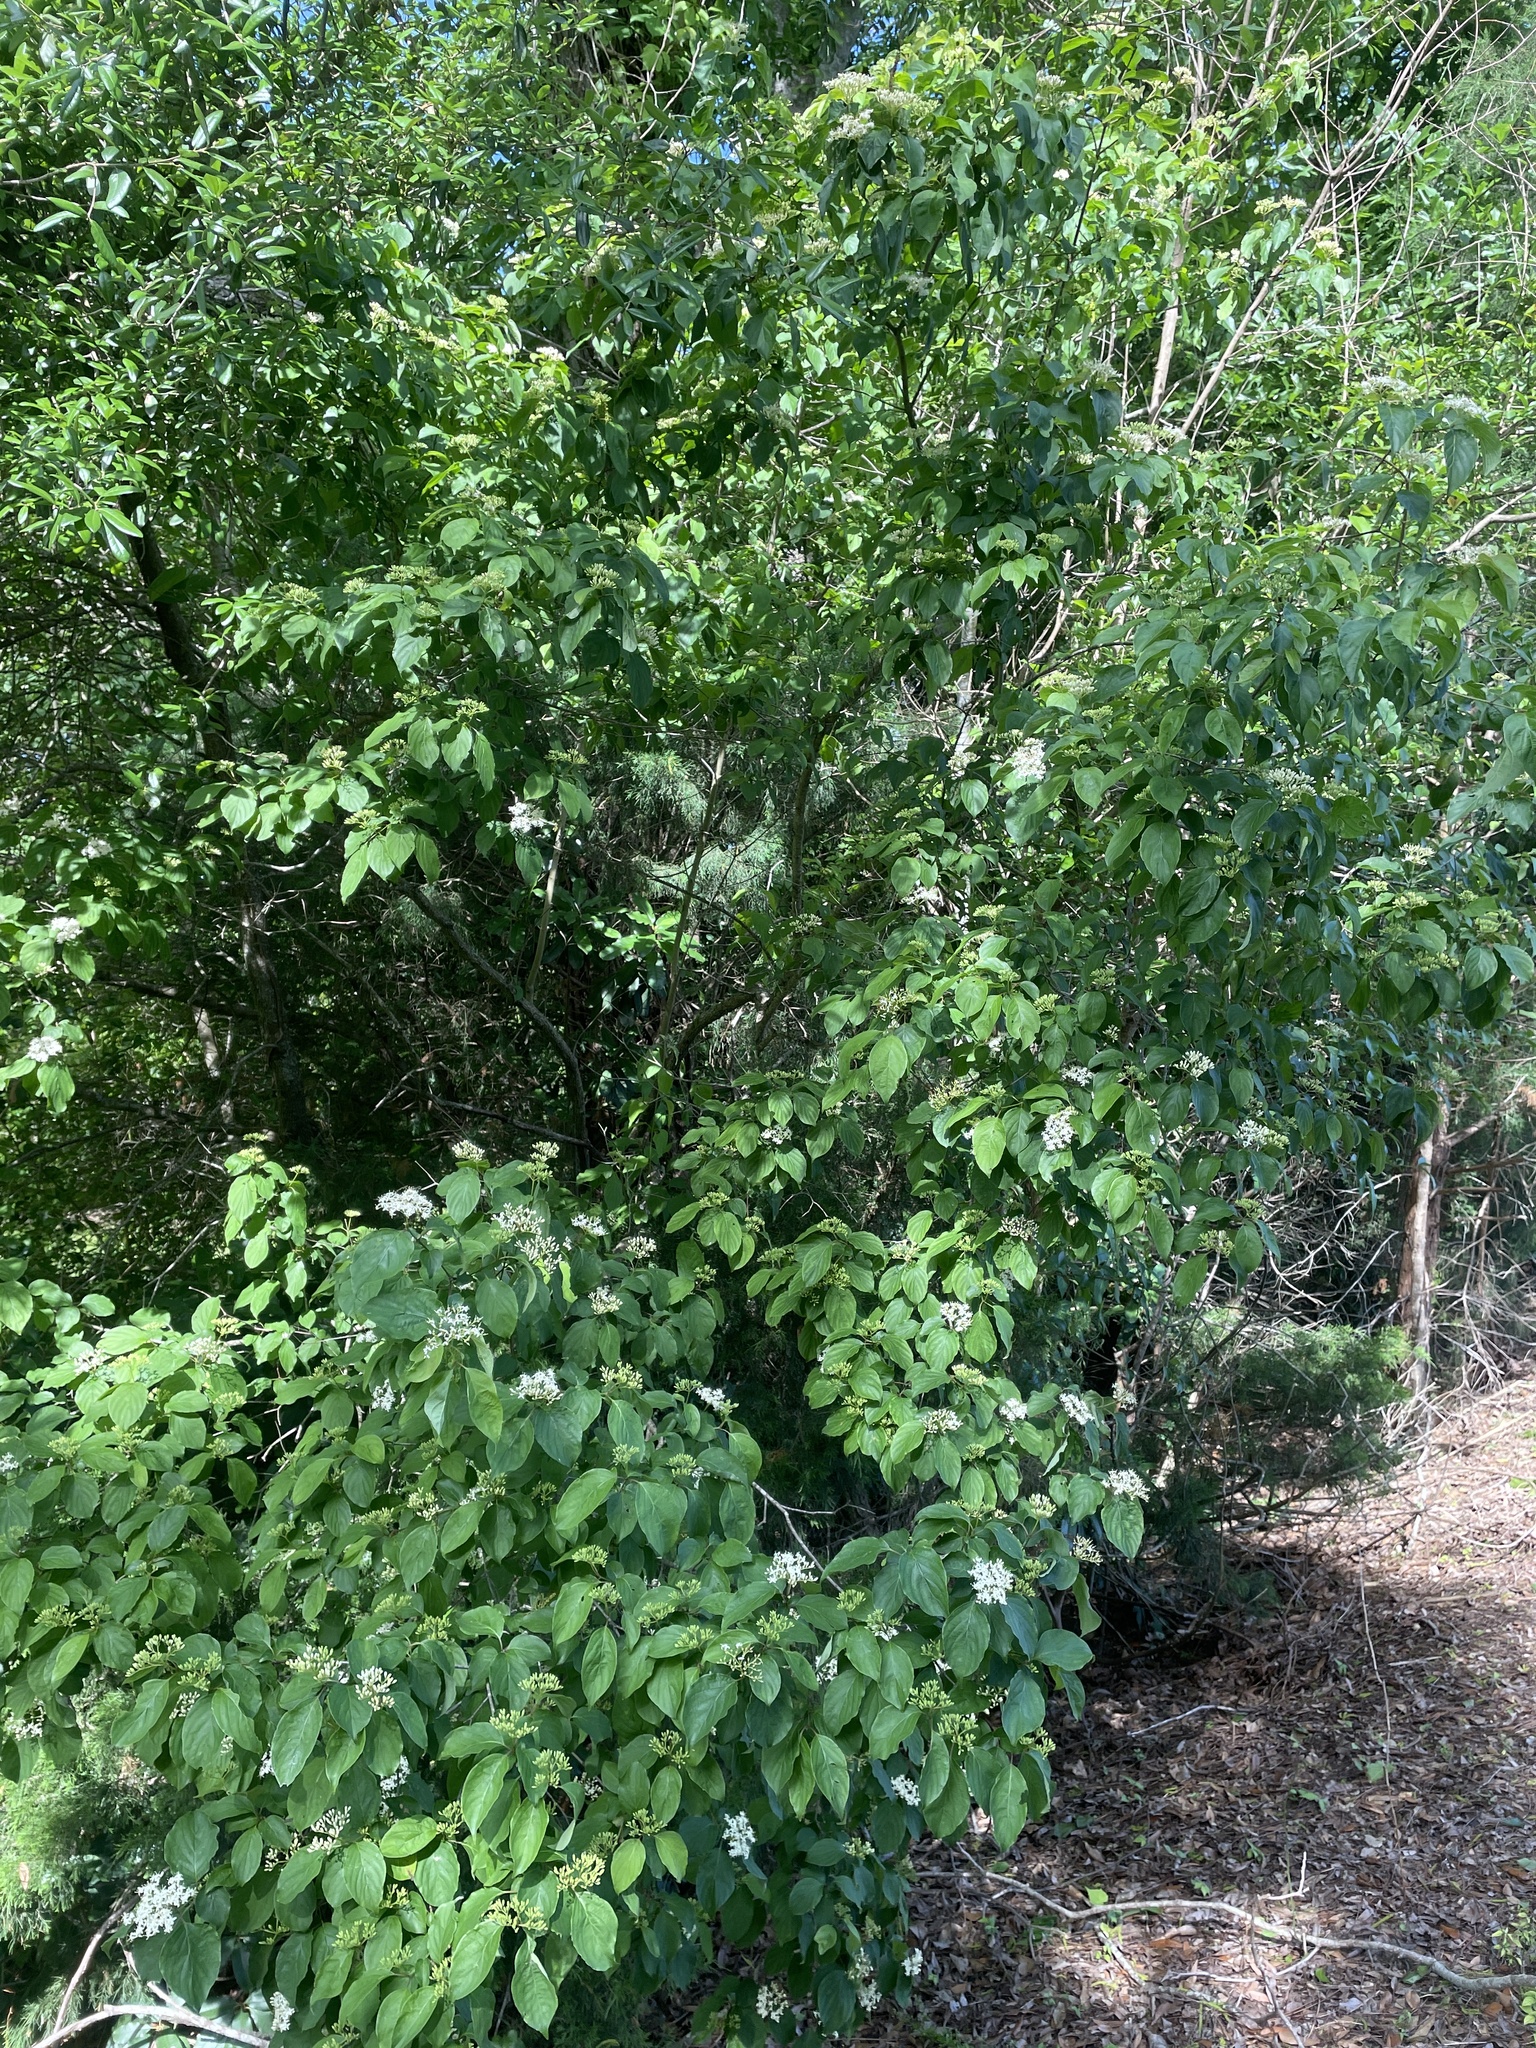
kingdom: Plantae
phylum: Tracheophyta
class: Magnoliopsida
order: Cornales
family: Cornaceae
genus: Cornus
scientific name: Cornus drummondii
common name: Rough-leaf dogwood
